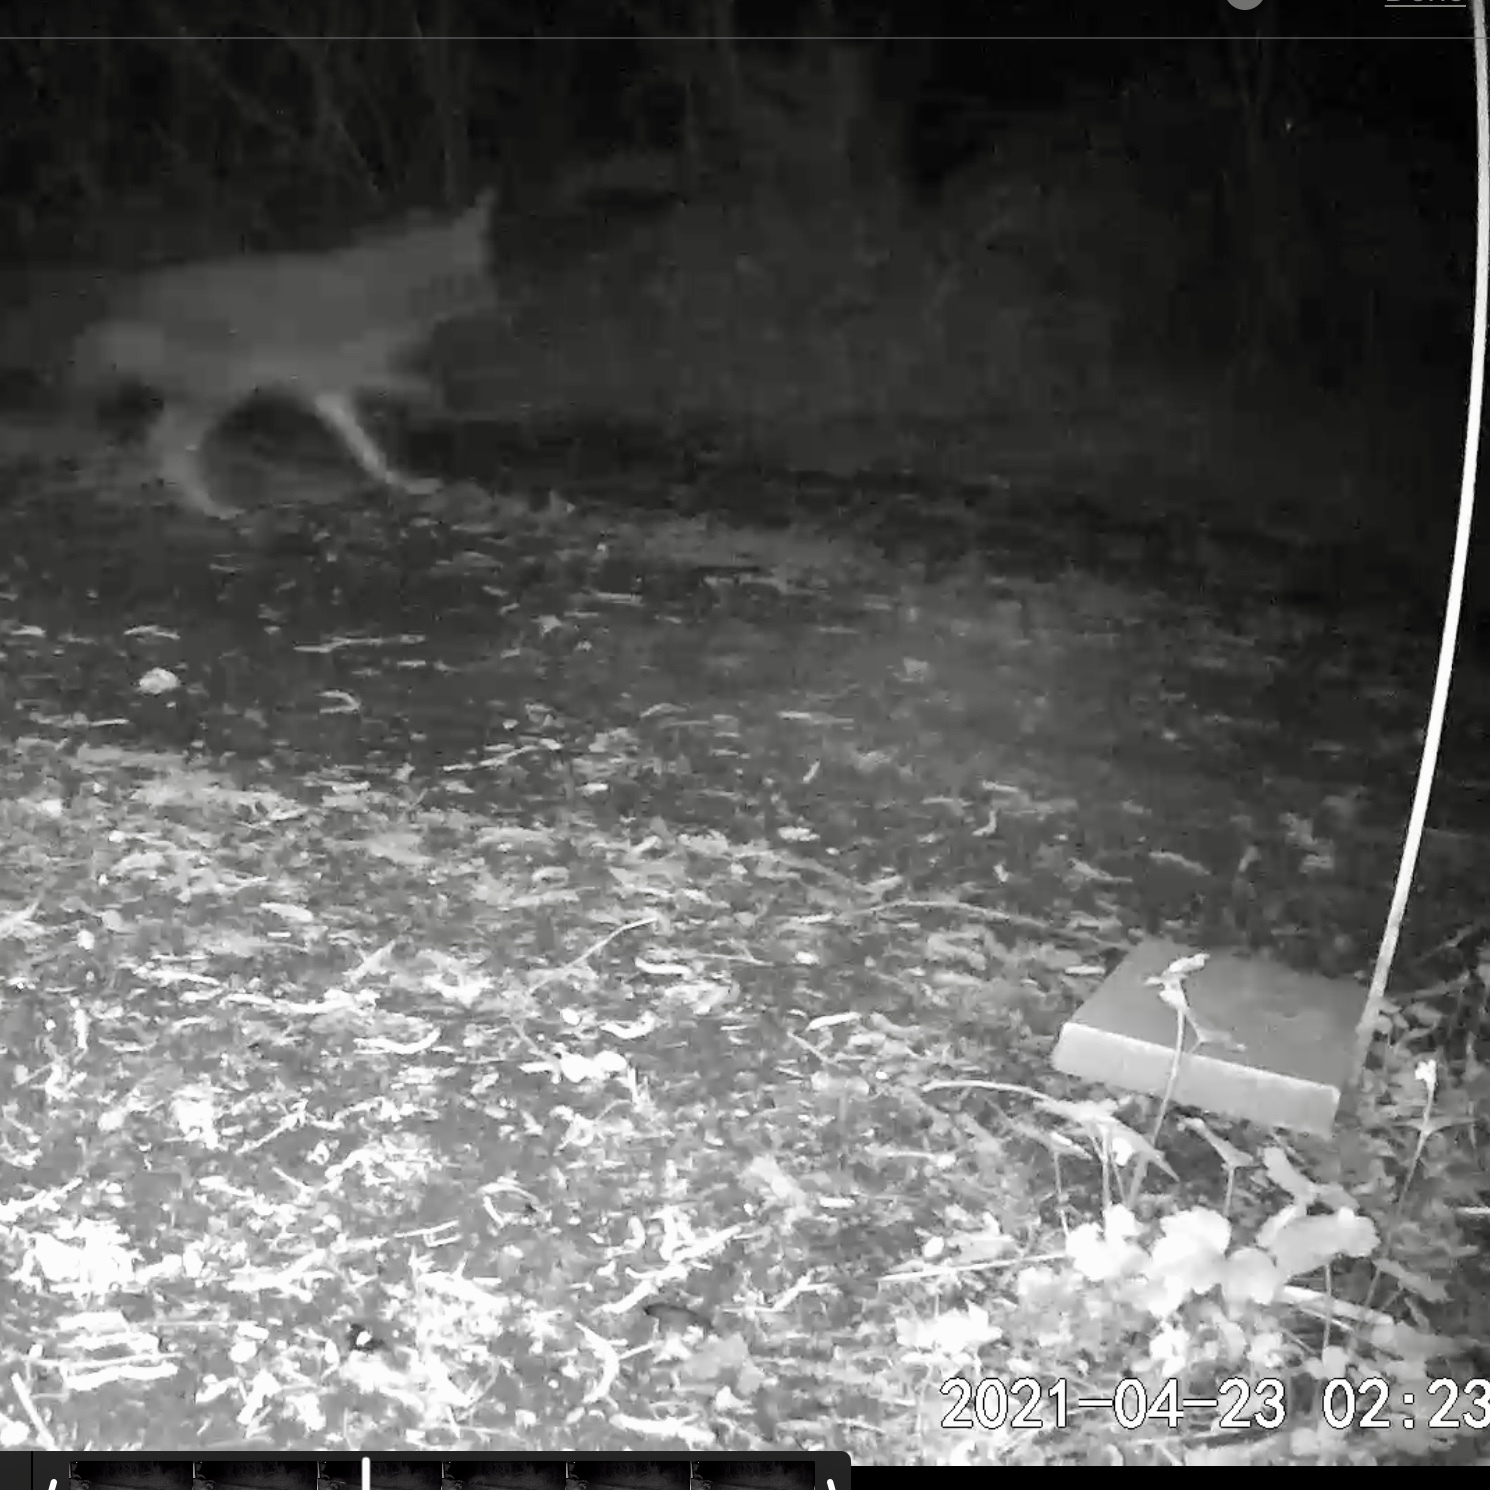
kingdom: Animalia
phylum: Chordata
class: Mammalia
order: Carnivora
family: Canidae
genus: Canis
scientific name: Canis latrans
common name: Coyote
